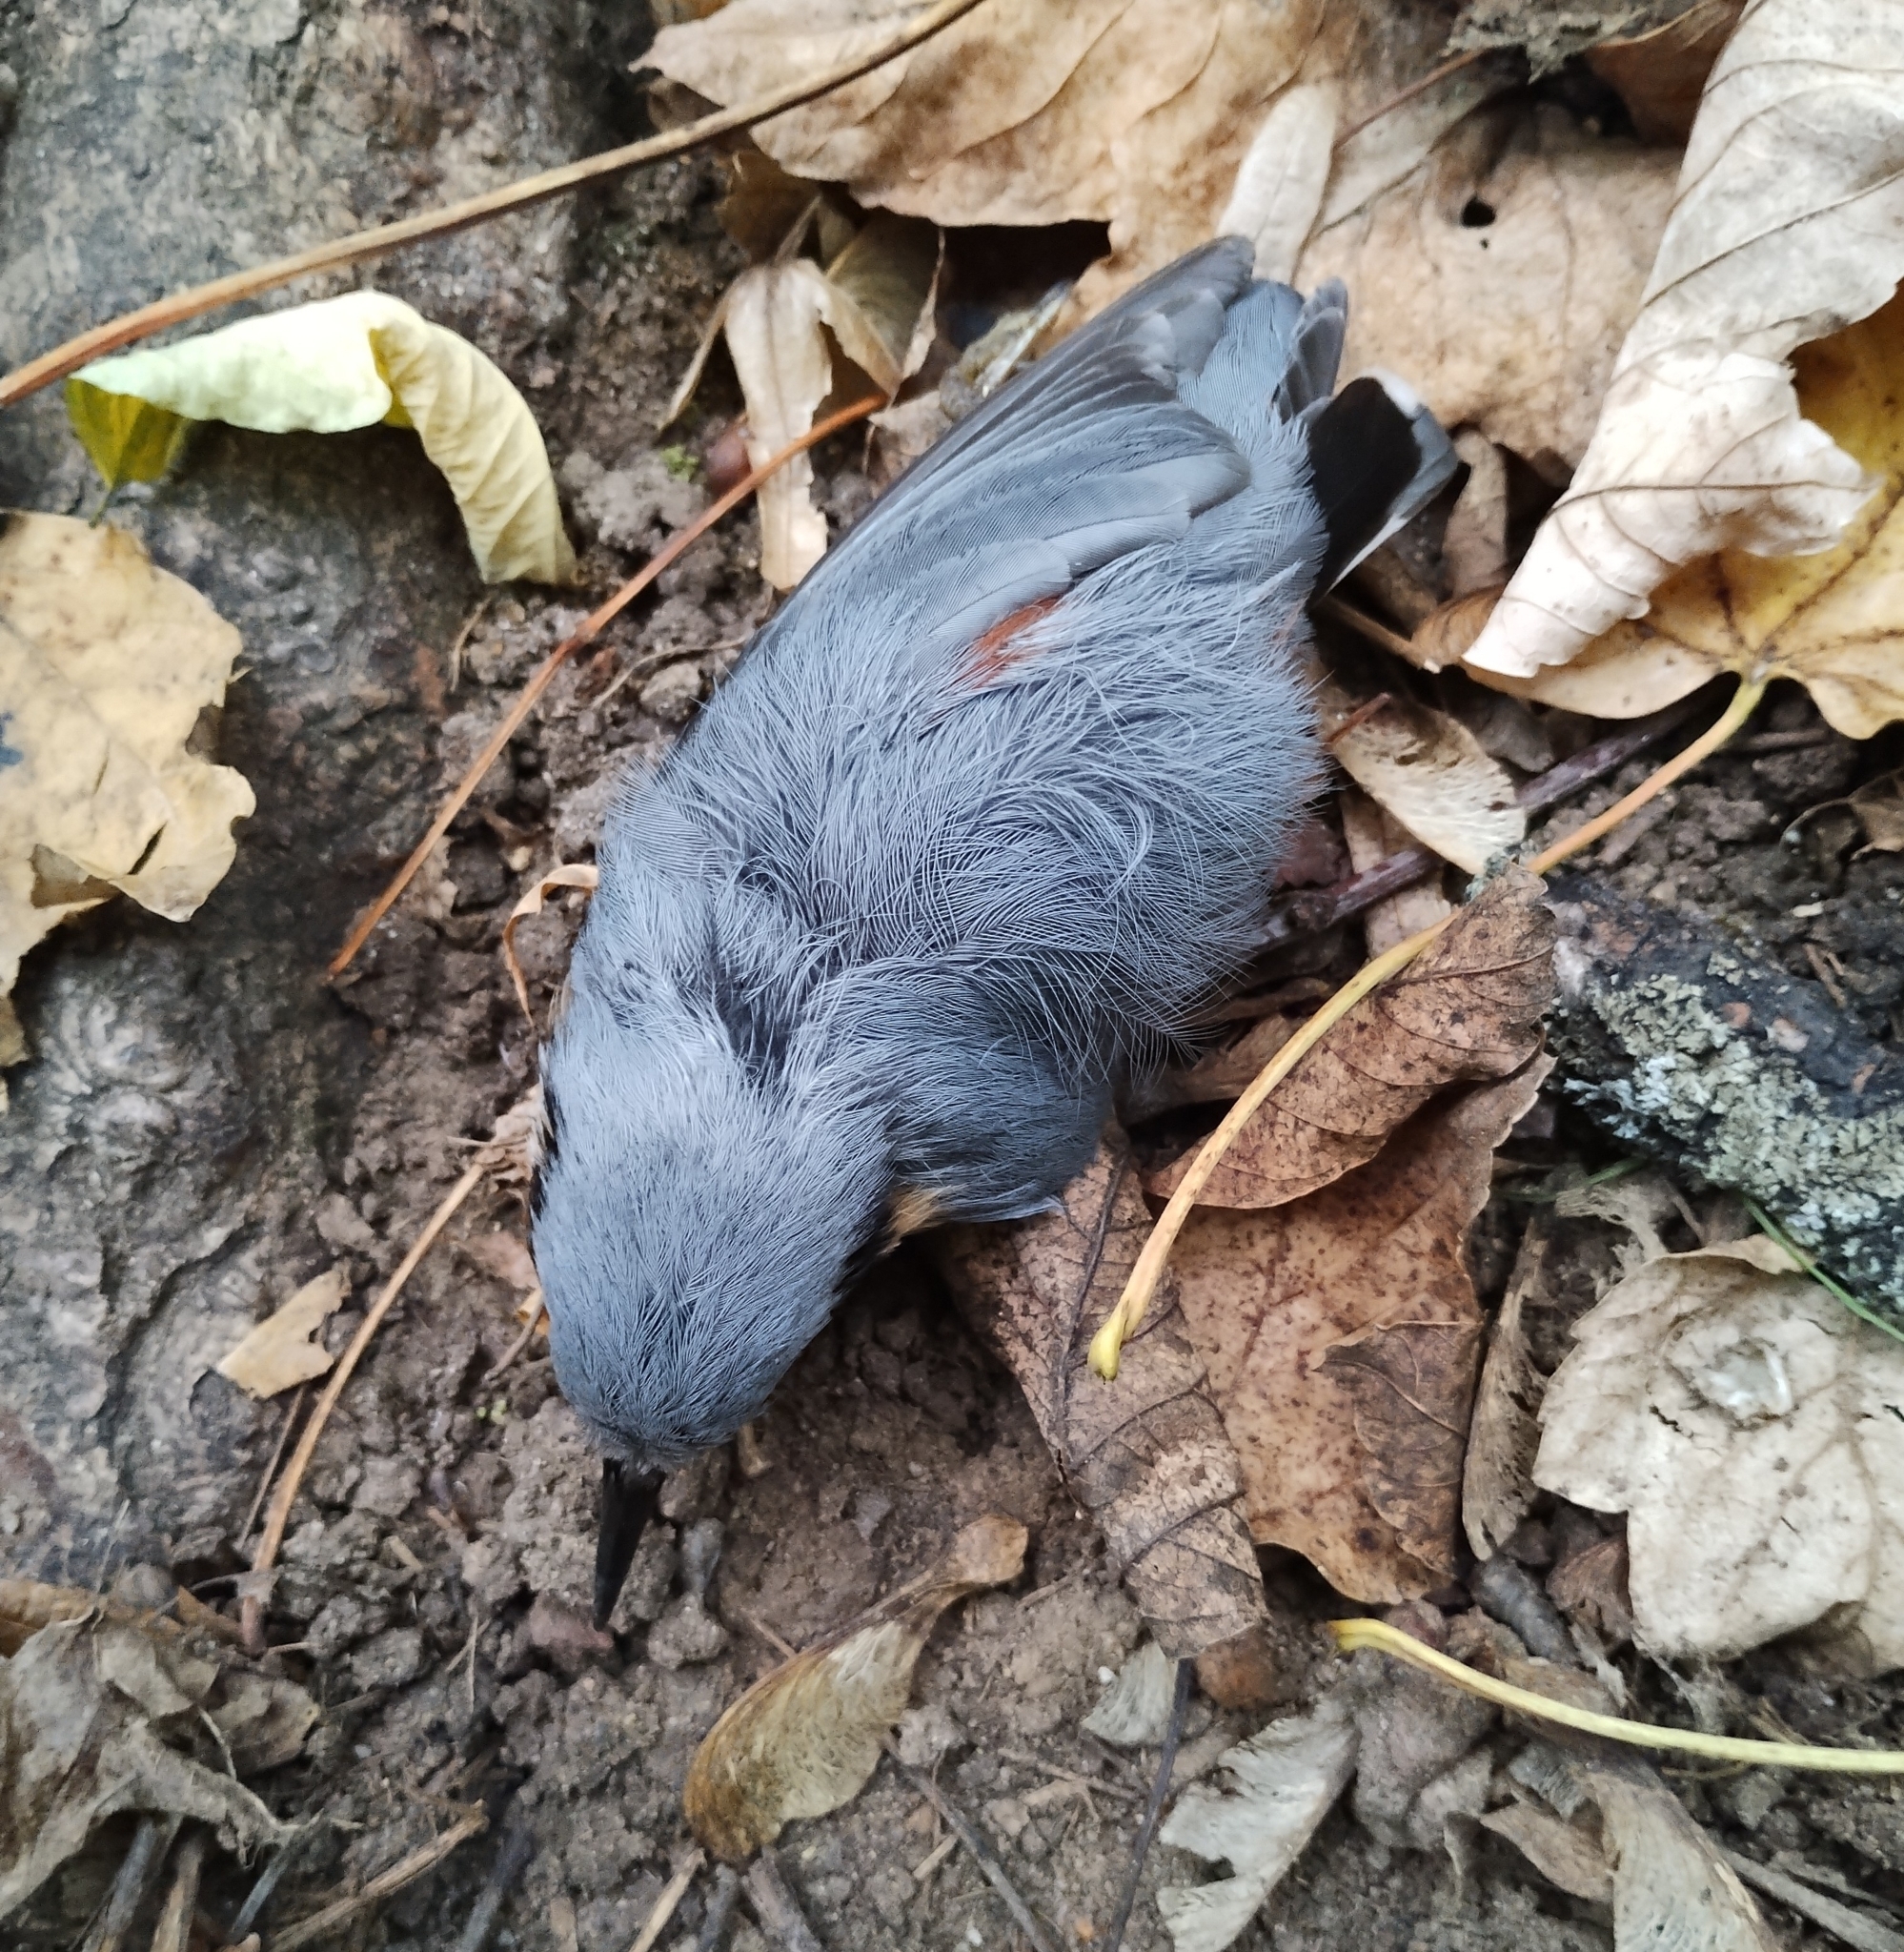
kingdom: Animalia
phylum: Chordata
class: Aves
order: Passeriformes
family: Sittidae
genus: Sitta
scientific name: Sitta europaea
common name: Eurasian nuthatch
